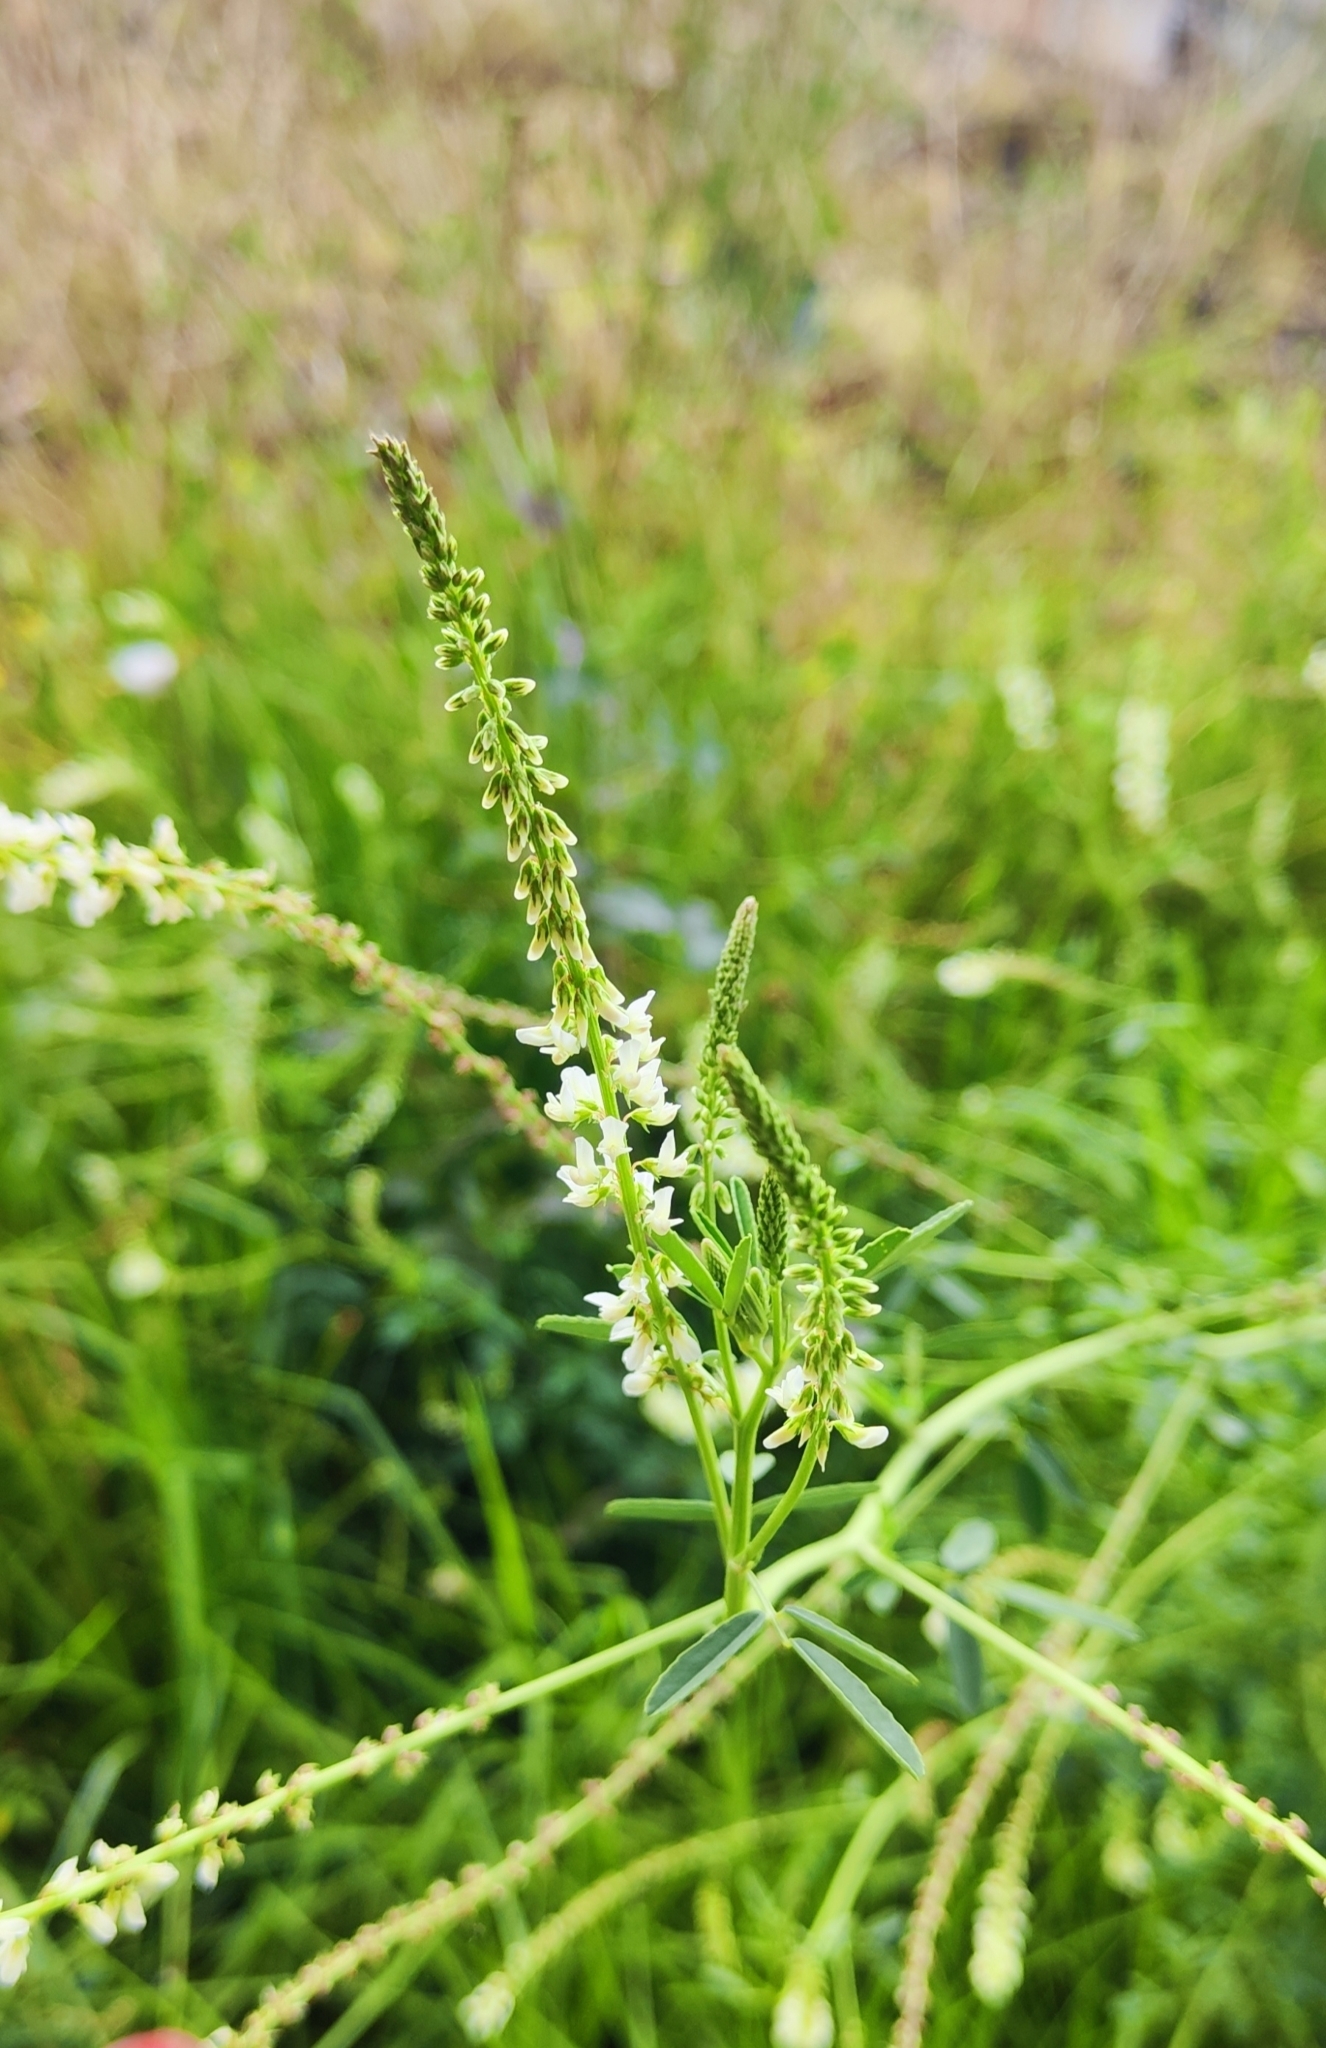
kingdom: Plantae
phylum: Tracheophyta
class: Magnoliopsida
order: Fabales
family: Fabaceae
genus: Melilotus
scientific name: Melilotus albus
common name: White melilot
